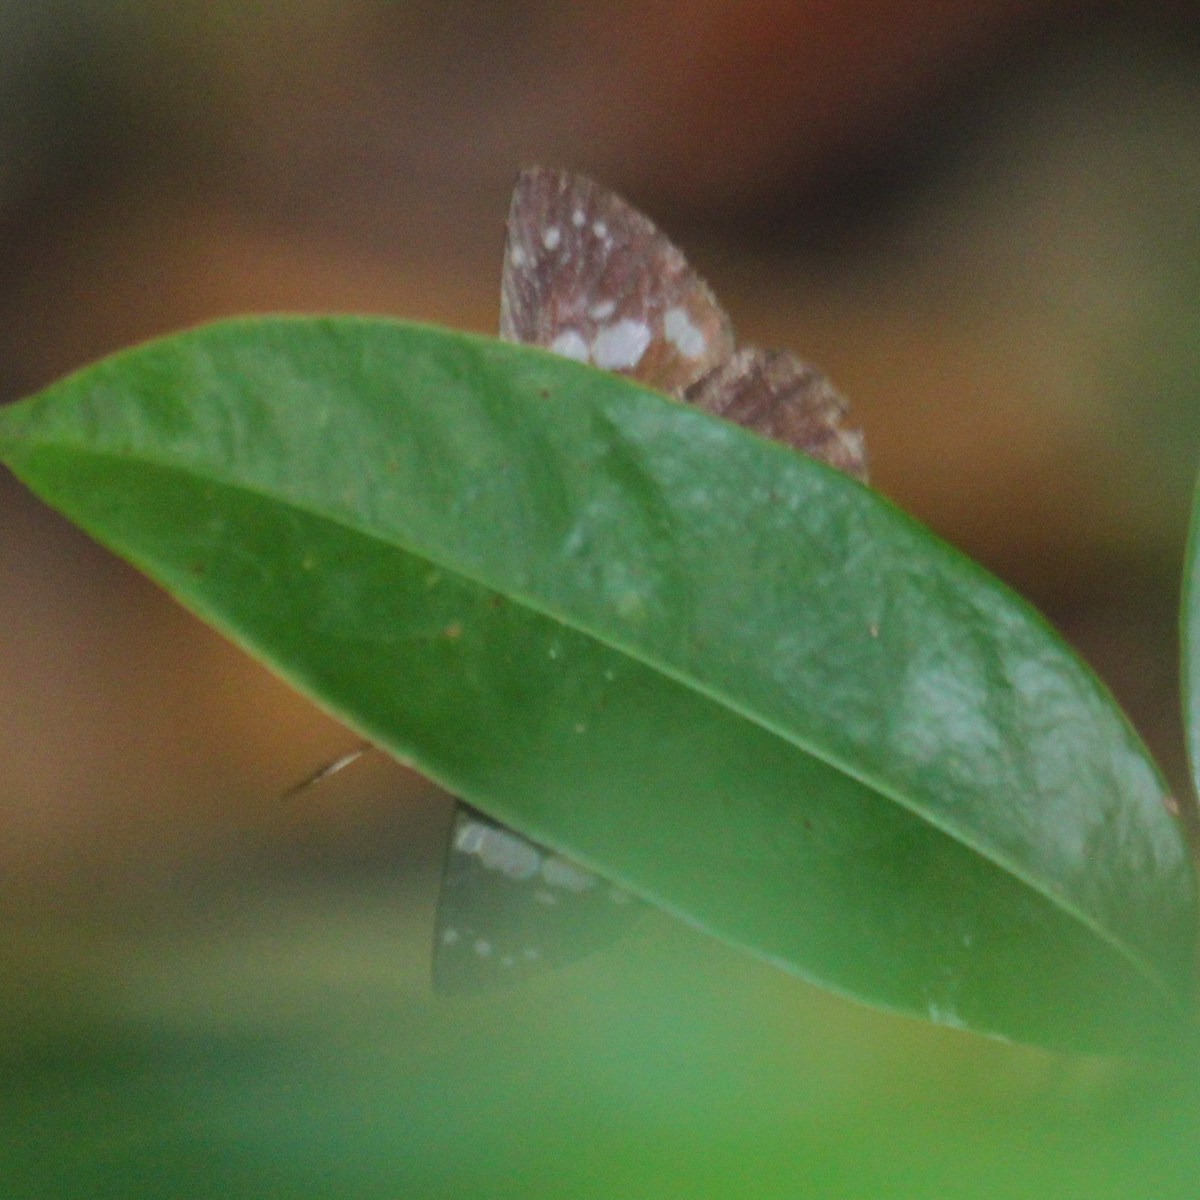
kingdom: Animalia
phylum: Arthropoda
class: Insecta
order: Lepidoptera
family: Hesperiidae
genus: Chamunda
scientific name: Chamunda chamunda
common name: Crescent spotted flat
